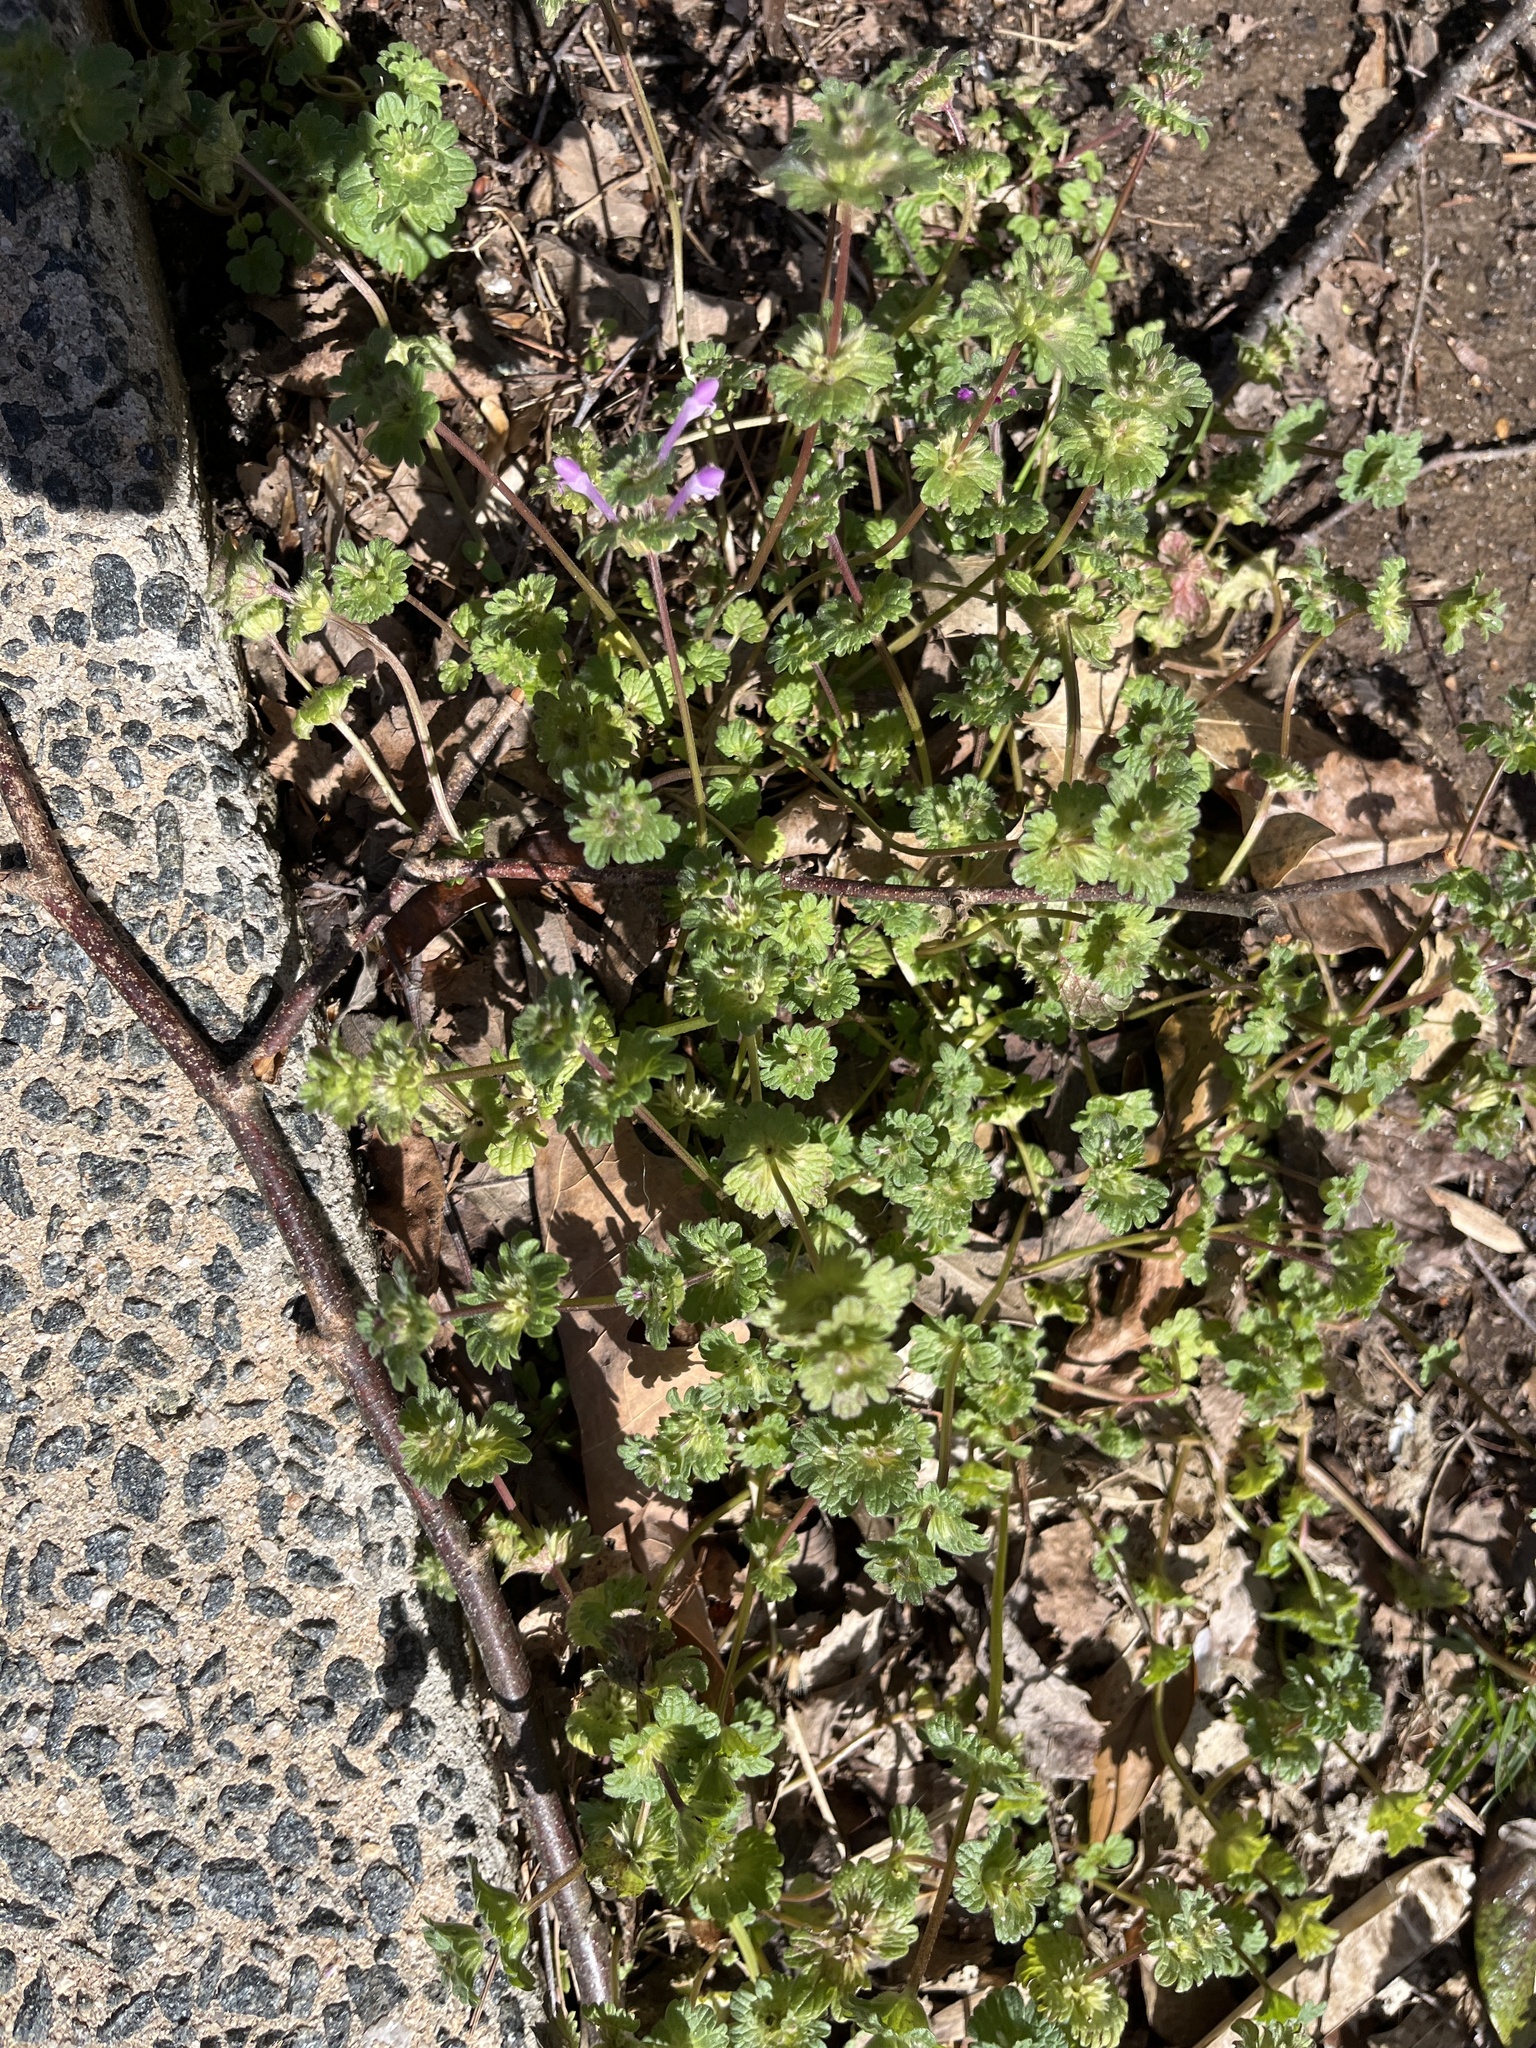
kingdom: Plantae
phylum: Tracheophyta
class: Magnoliopsida
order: Lamiales
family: Lamiaceae
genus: Lamium
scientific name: Lamium amplexicaule
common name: Henbit dead-nettle
